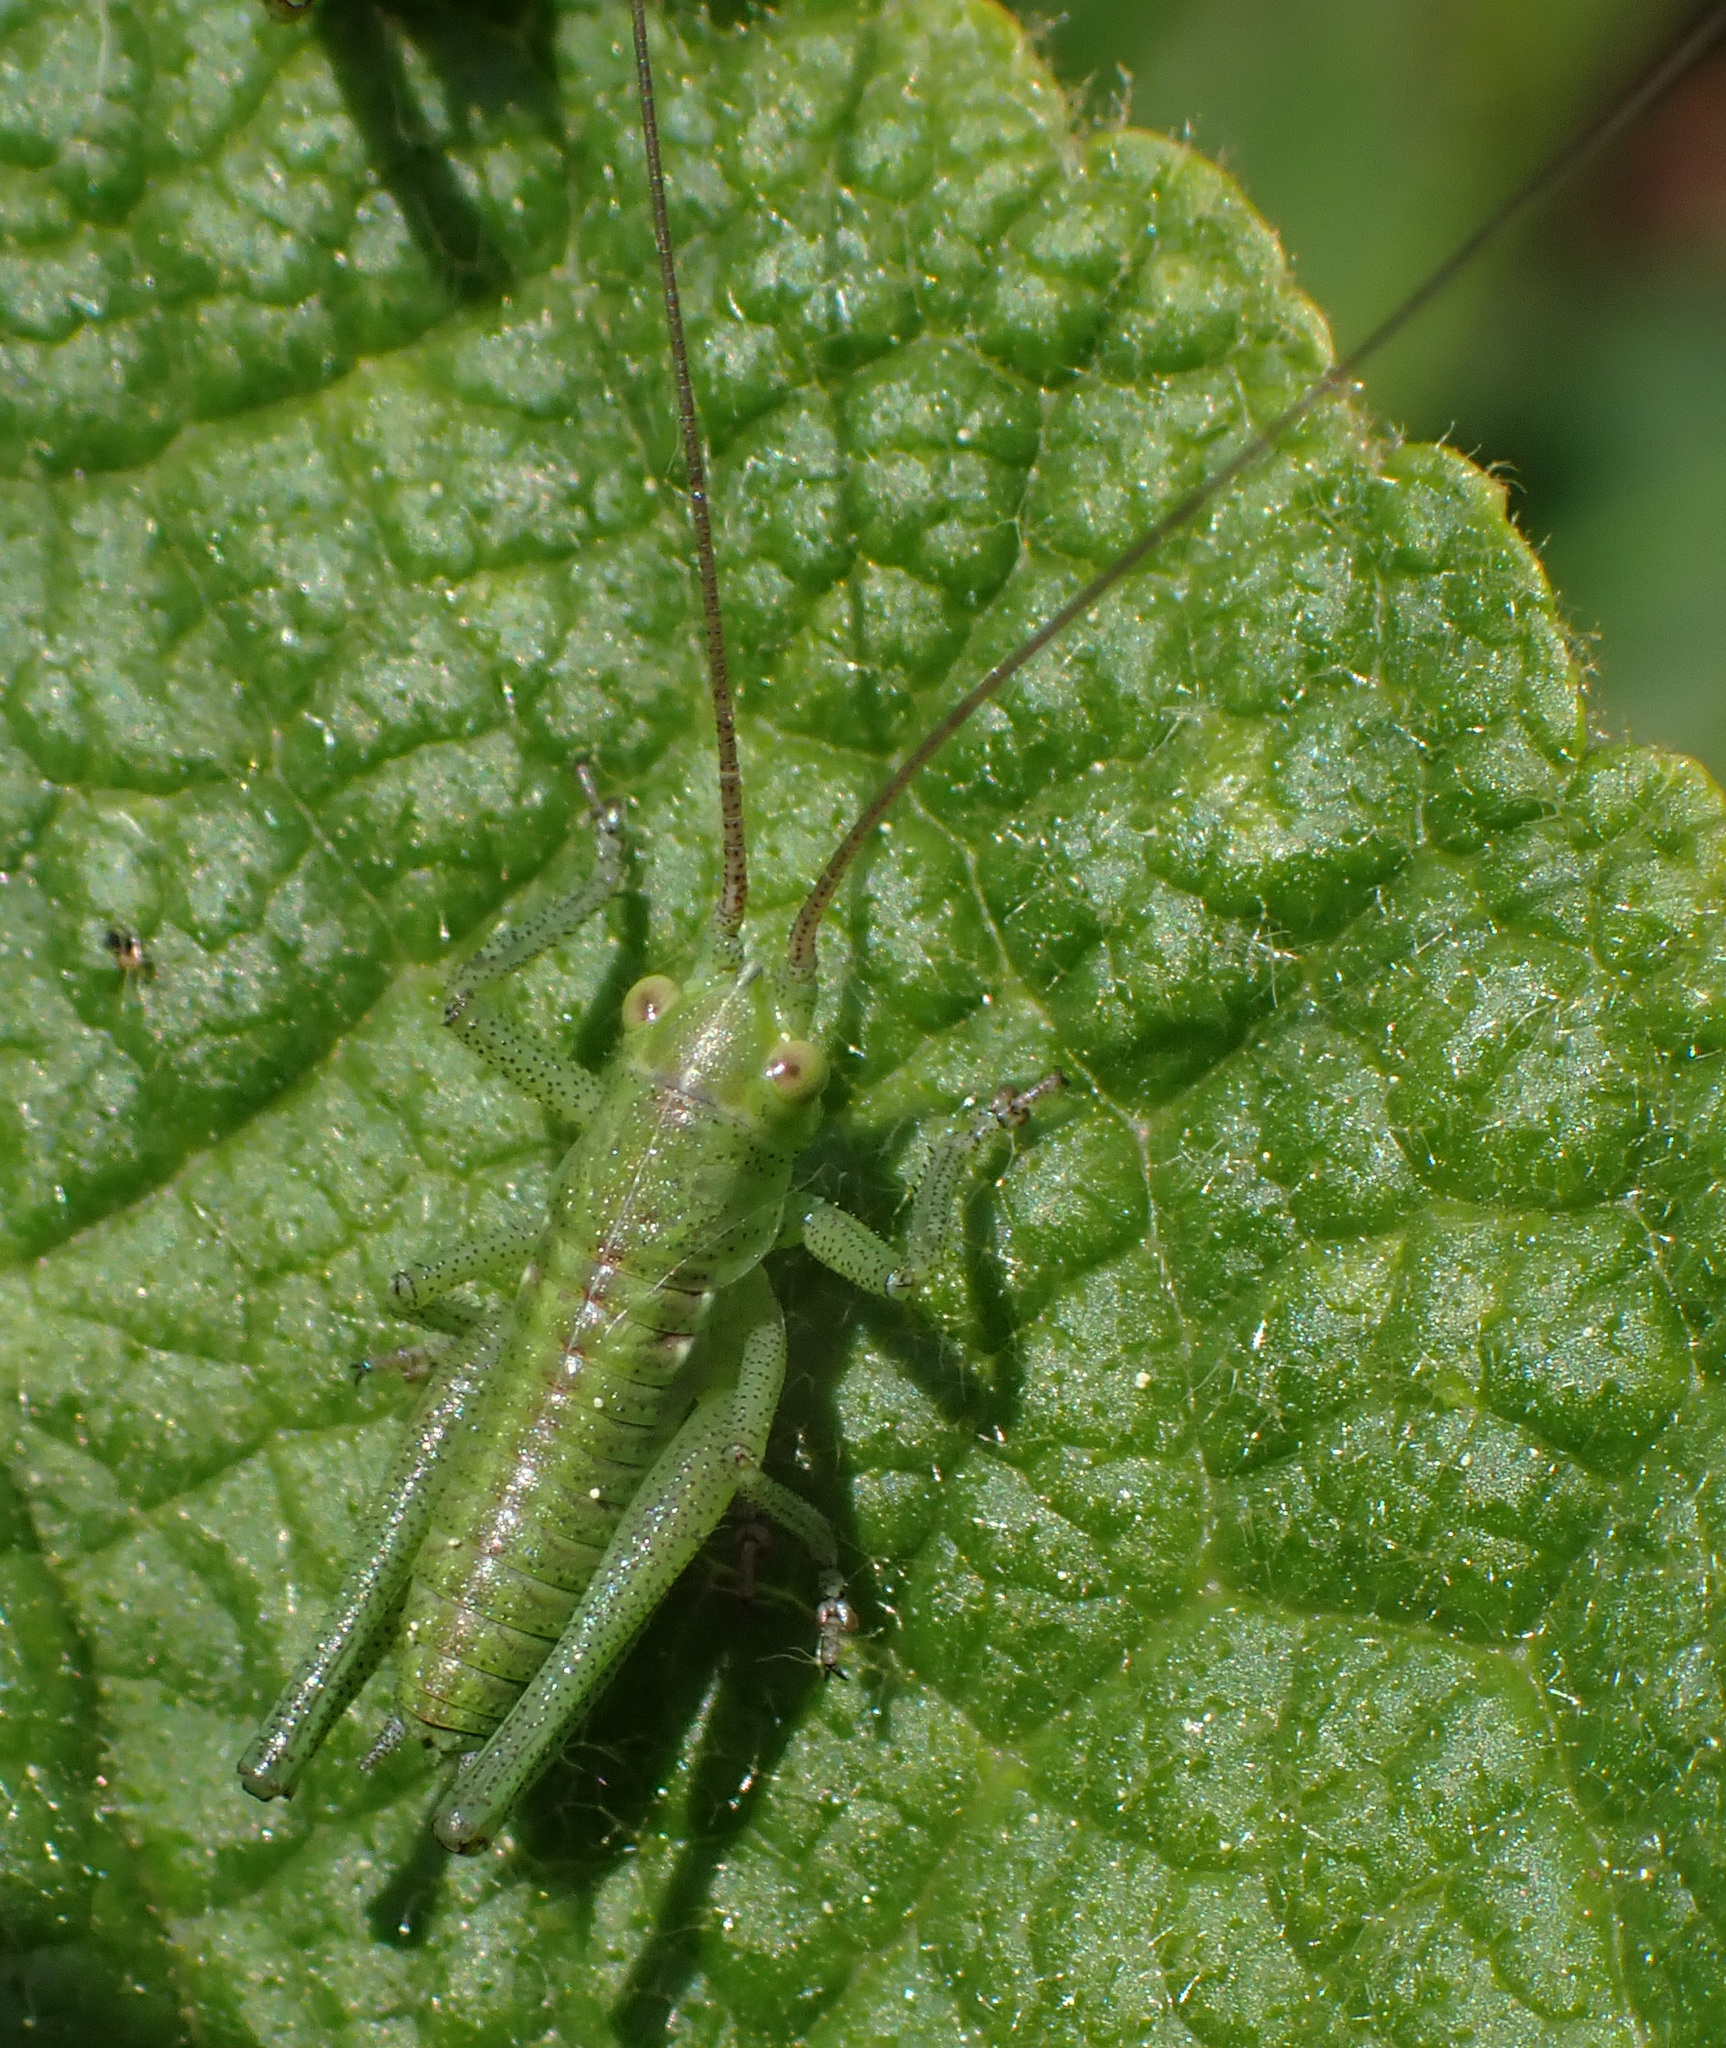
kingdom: Animalia
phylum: Arthropoda
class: Insecta
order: Orthoptera
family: Tettigoniidae
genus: Tettigonia
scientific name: Tettigonia viridissima
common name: Great green bush-cricket
